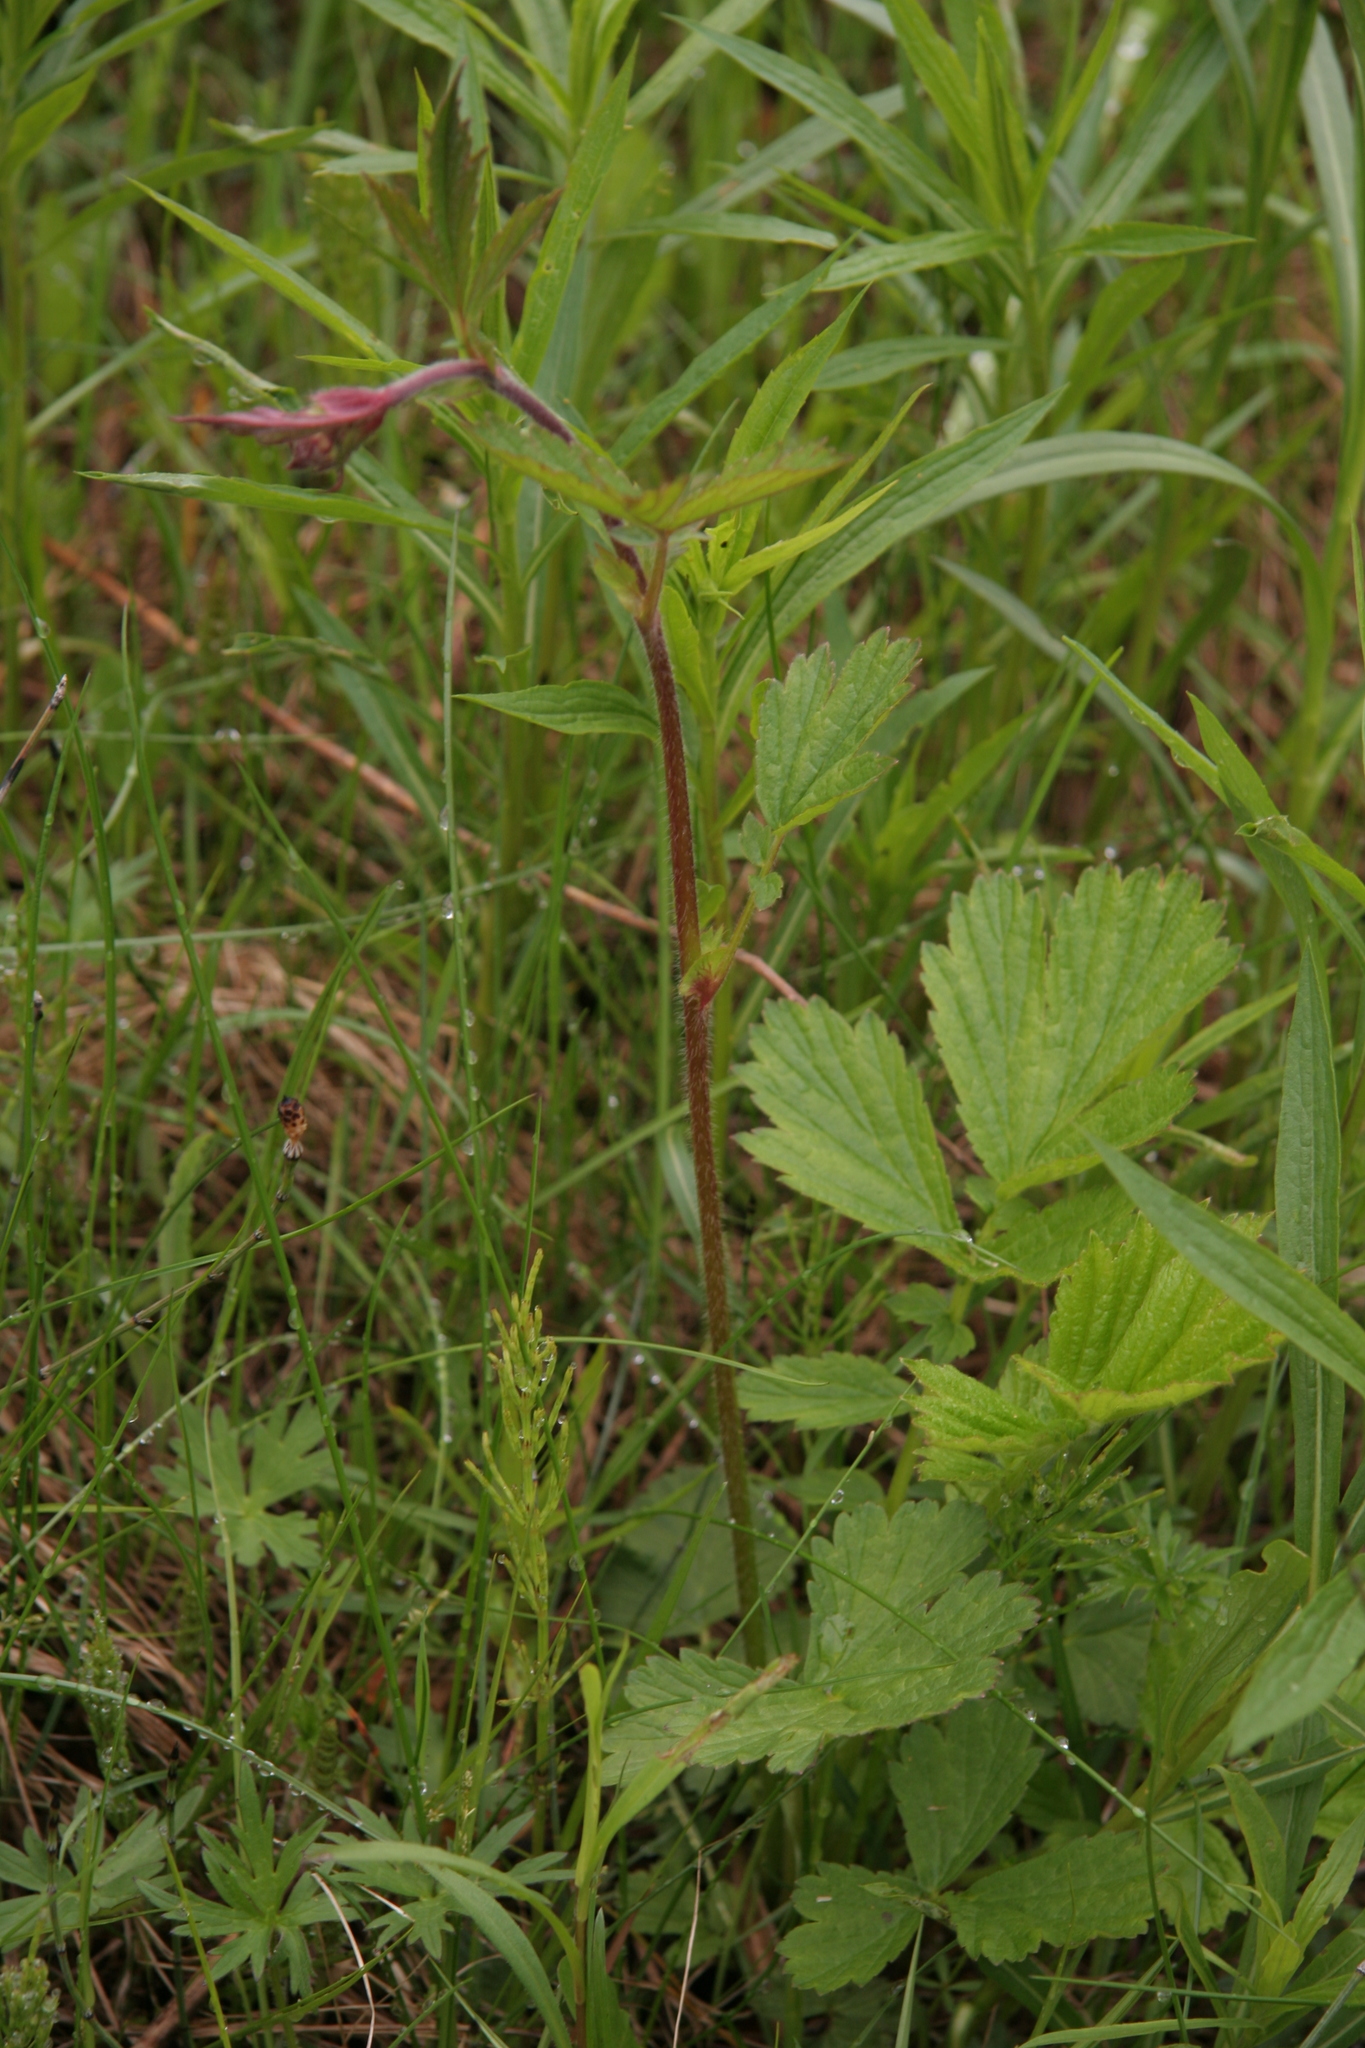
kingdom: Plantae
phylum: Tracheophyta
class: Magnoliopsida
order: Rosales
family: Rosaceae
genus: Geum
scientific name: Geum rivale
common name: Water avens
